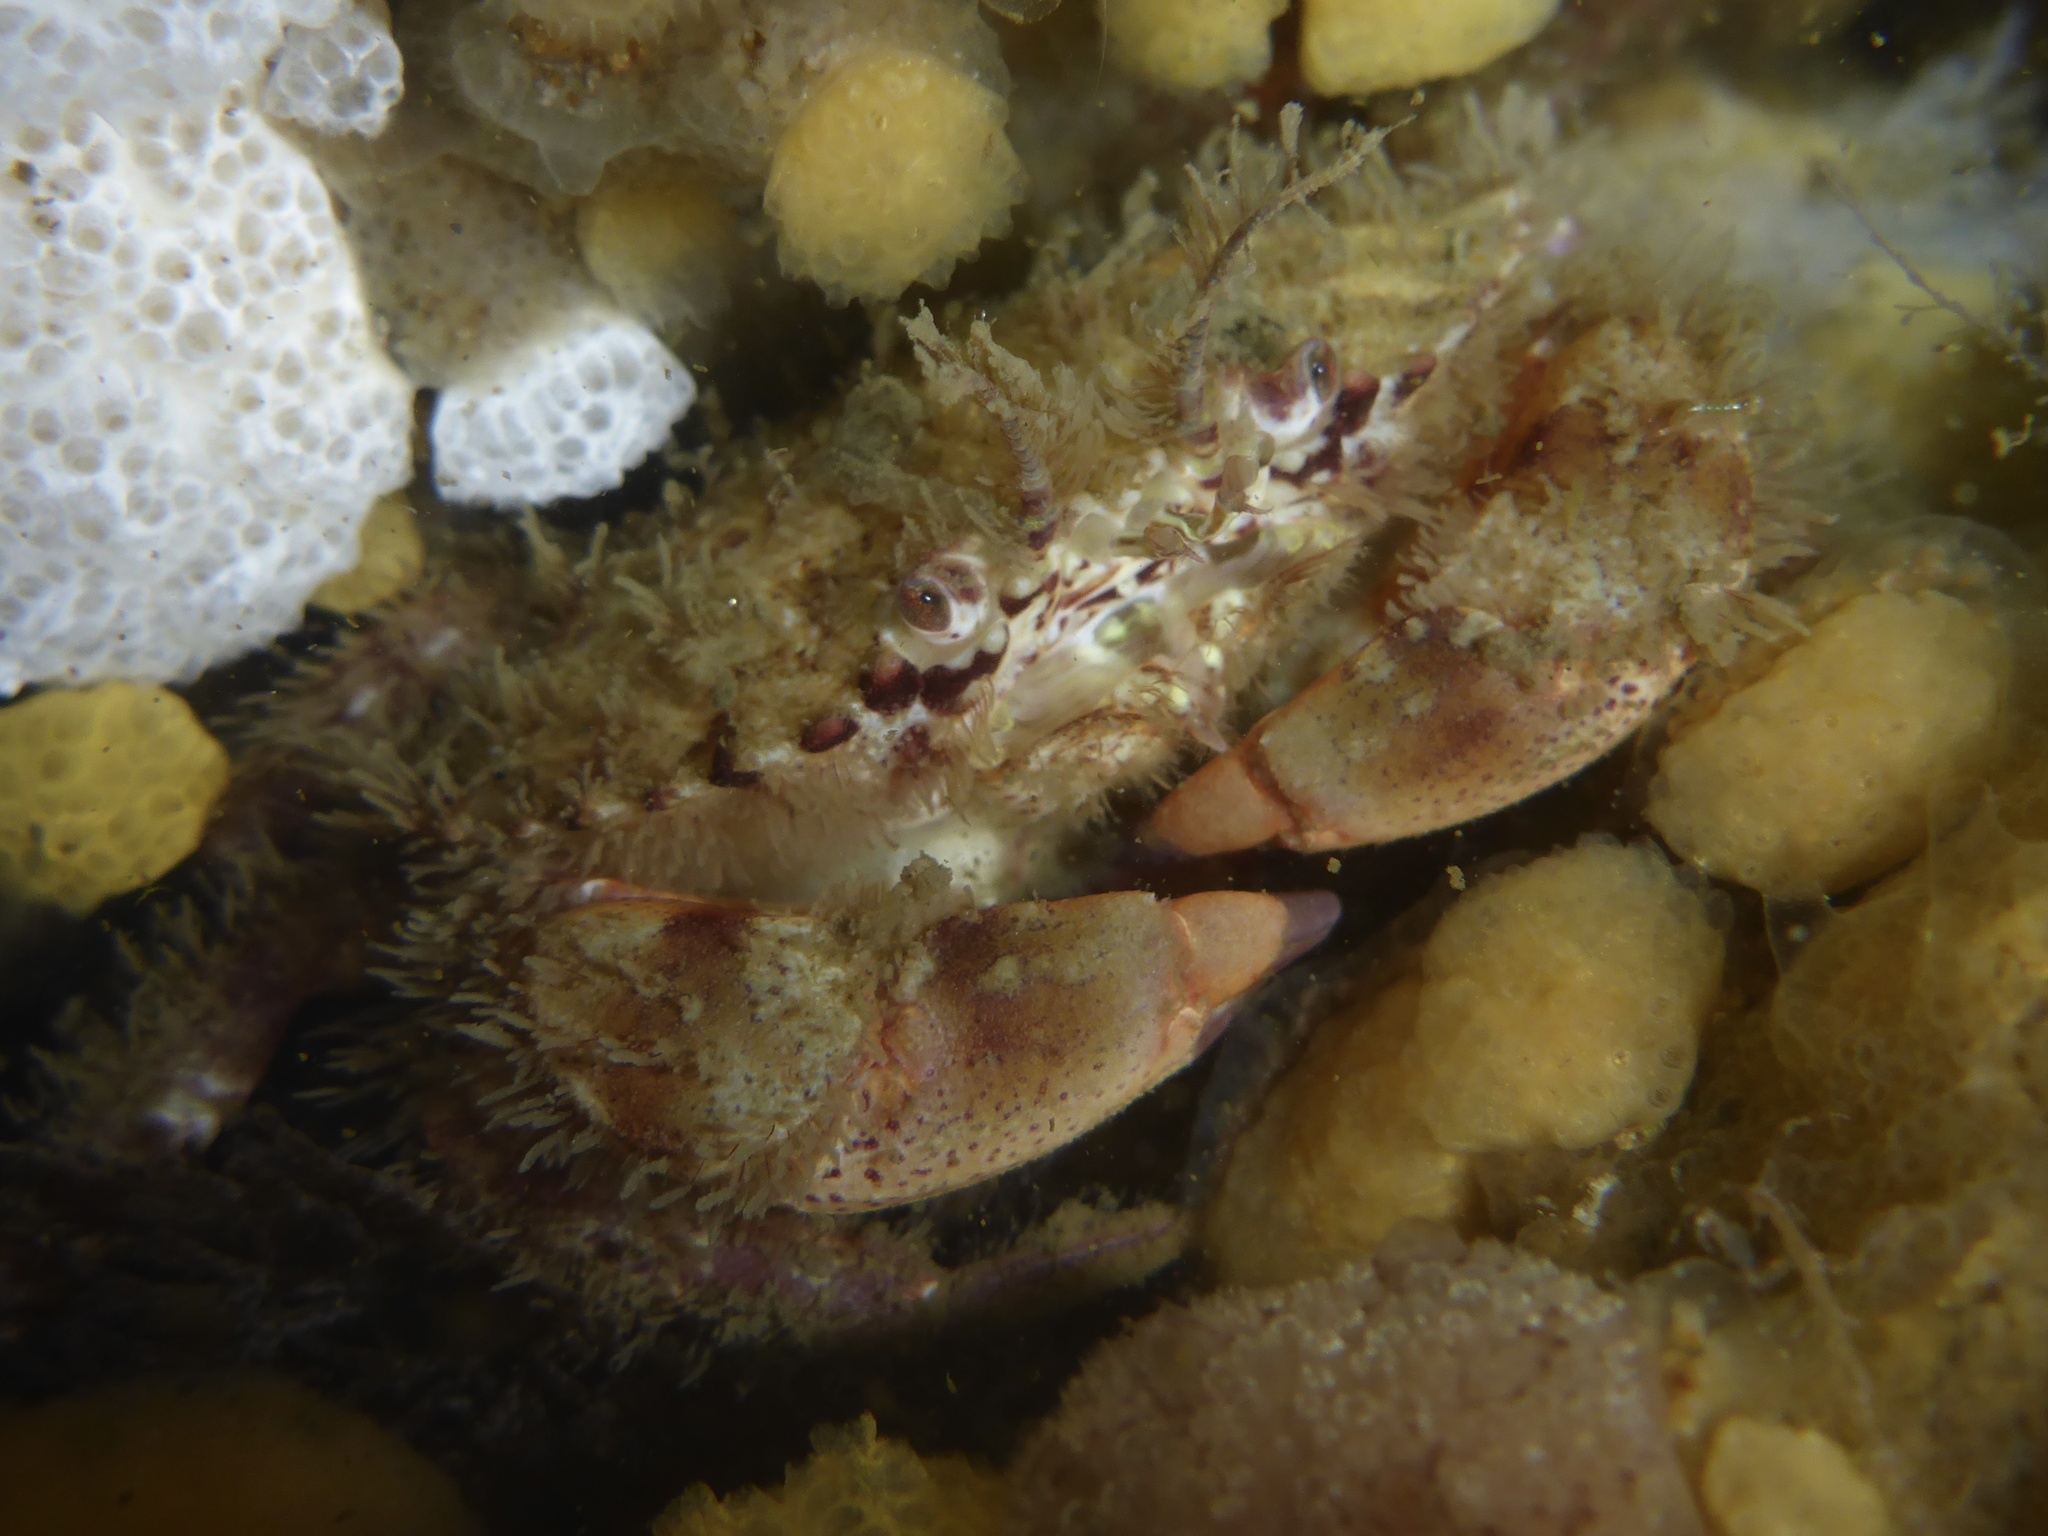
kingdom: Animalia
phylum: Arthropoda
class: Malacostraca
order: Decapoda
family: Cancridae
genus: Romaleon
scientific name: Romaleon antennarium
